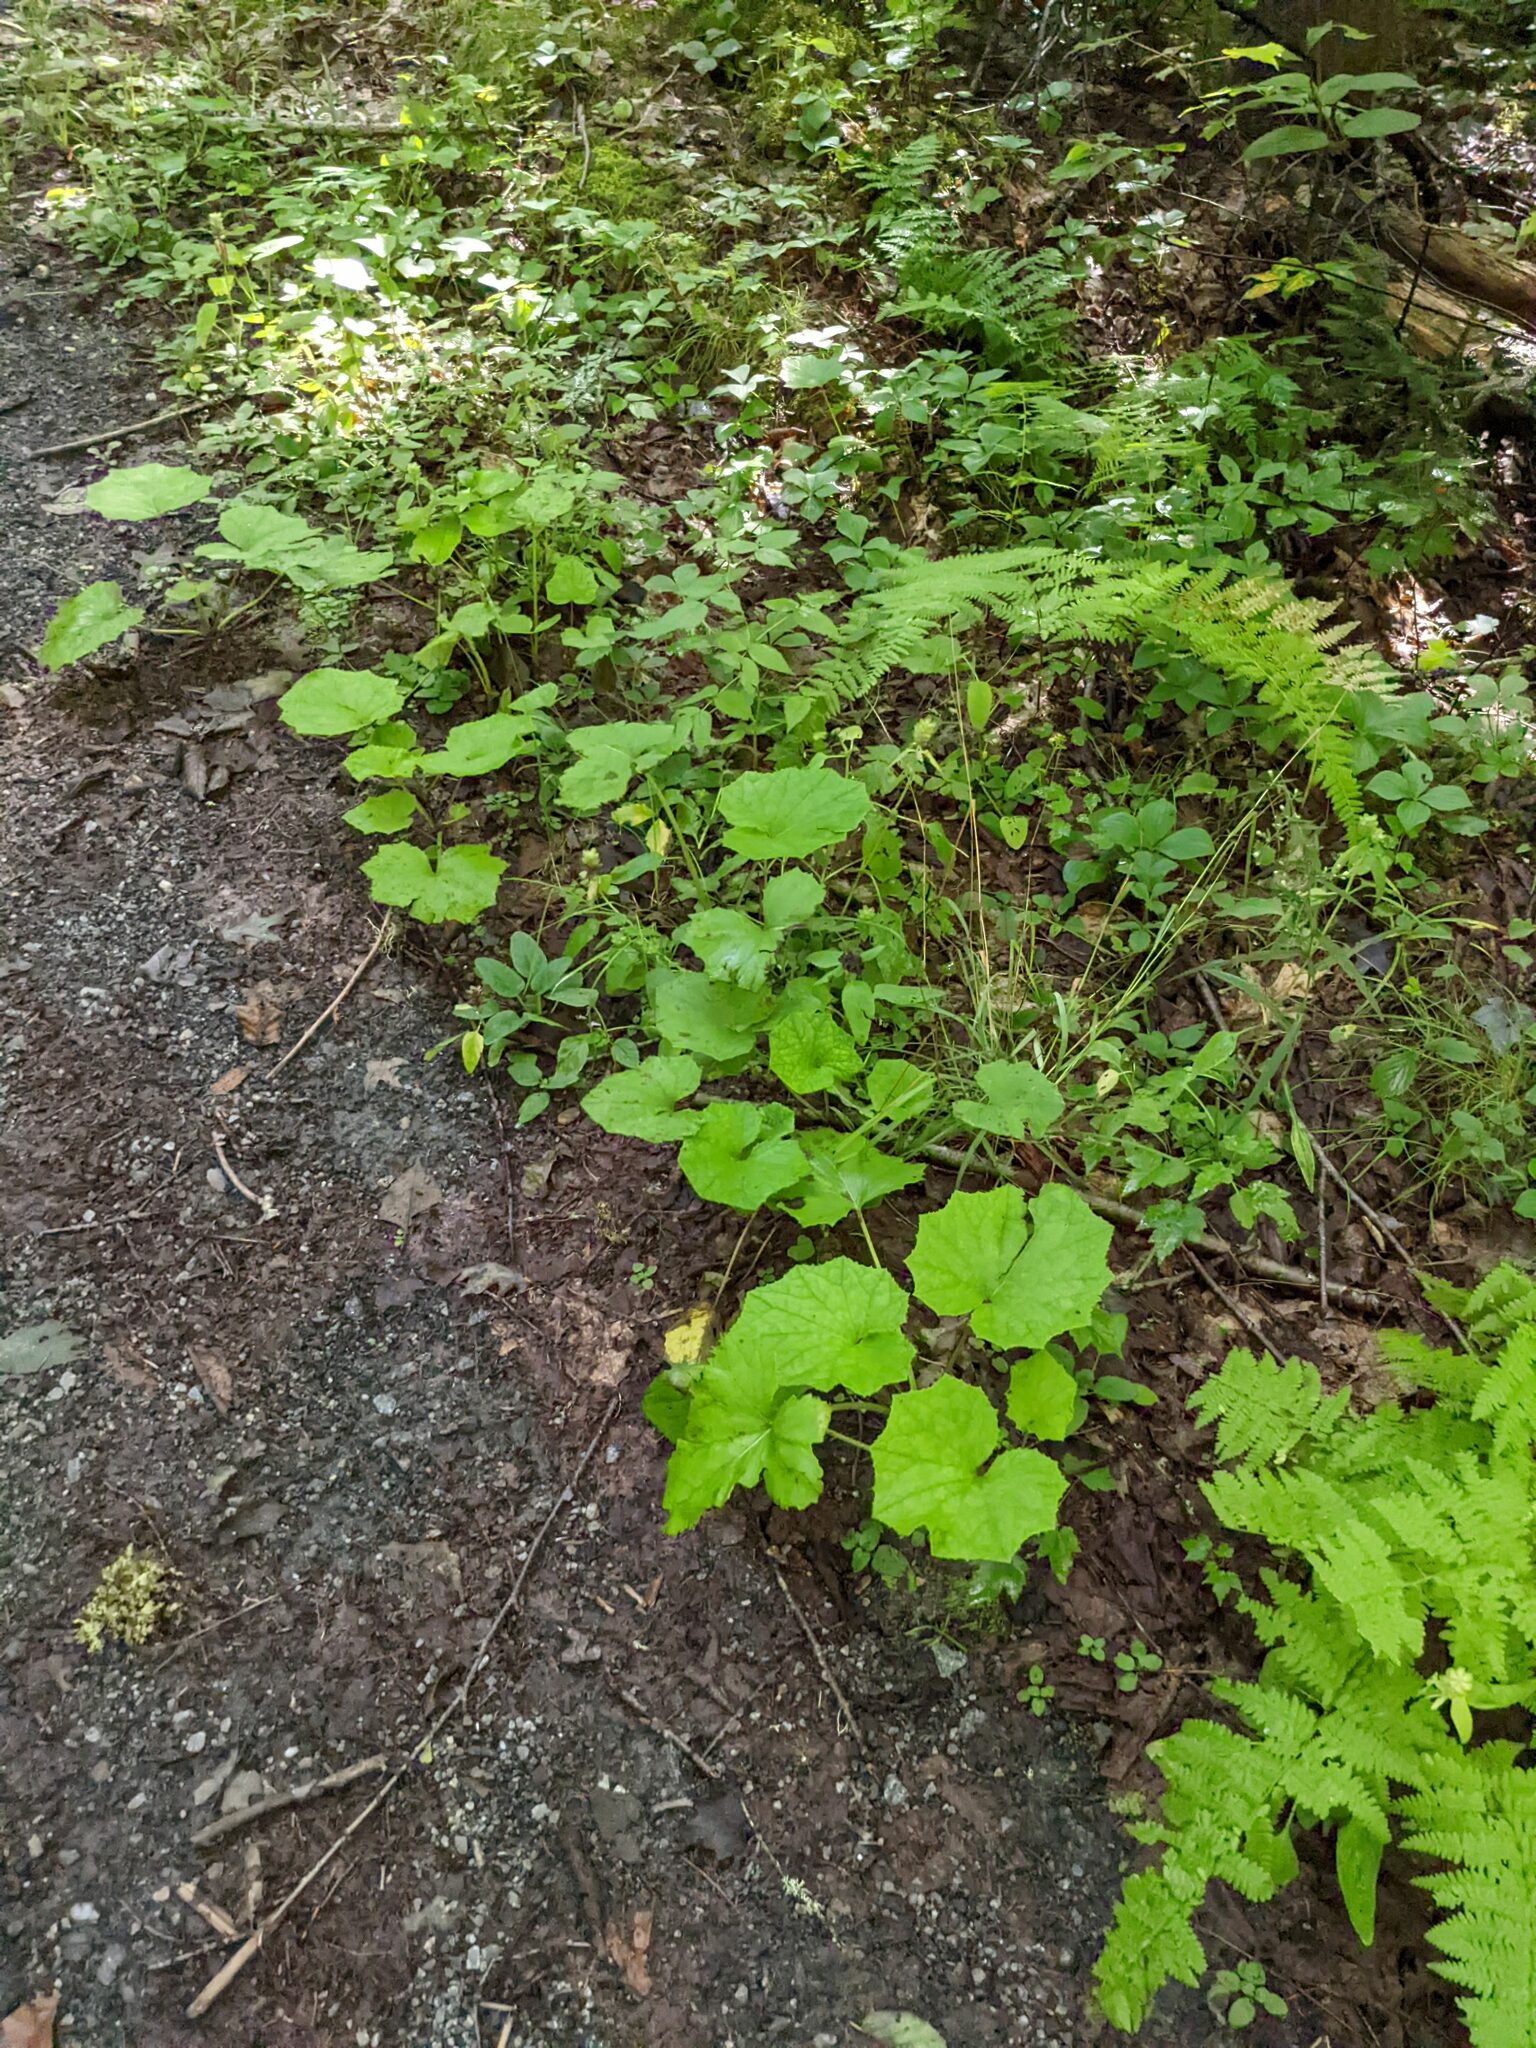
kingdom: Plantae
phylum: Tracheophyta
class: Magnoliopsida
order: Asterales
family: Asteraceae
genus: Tussilago
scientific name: Tussilago farfara
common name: Coltsfoot
